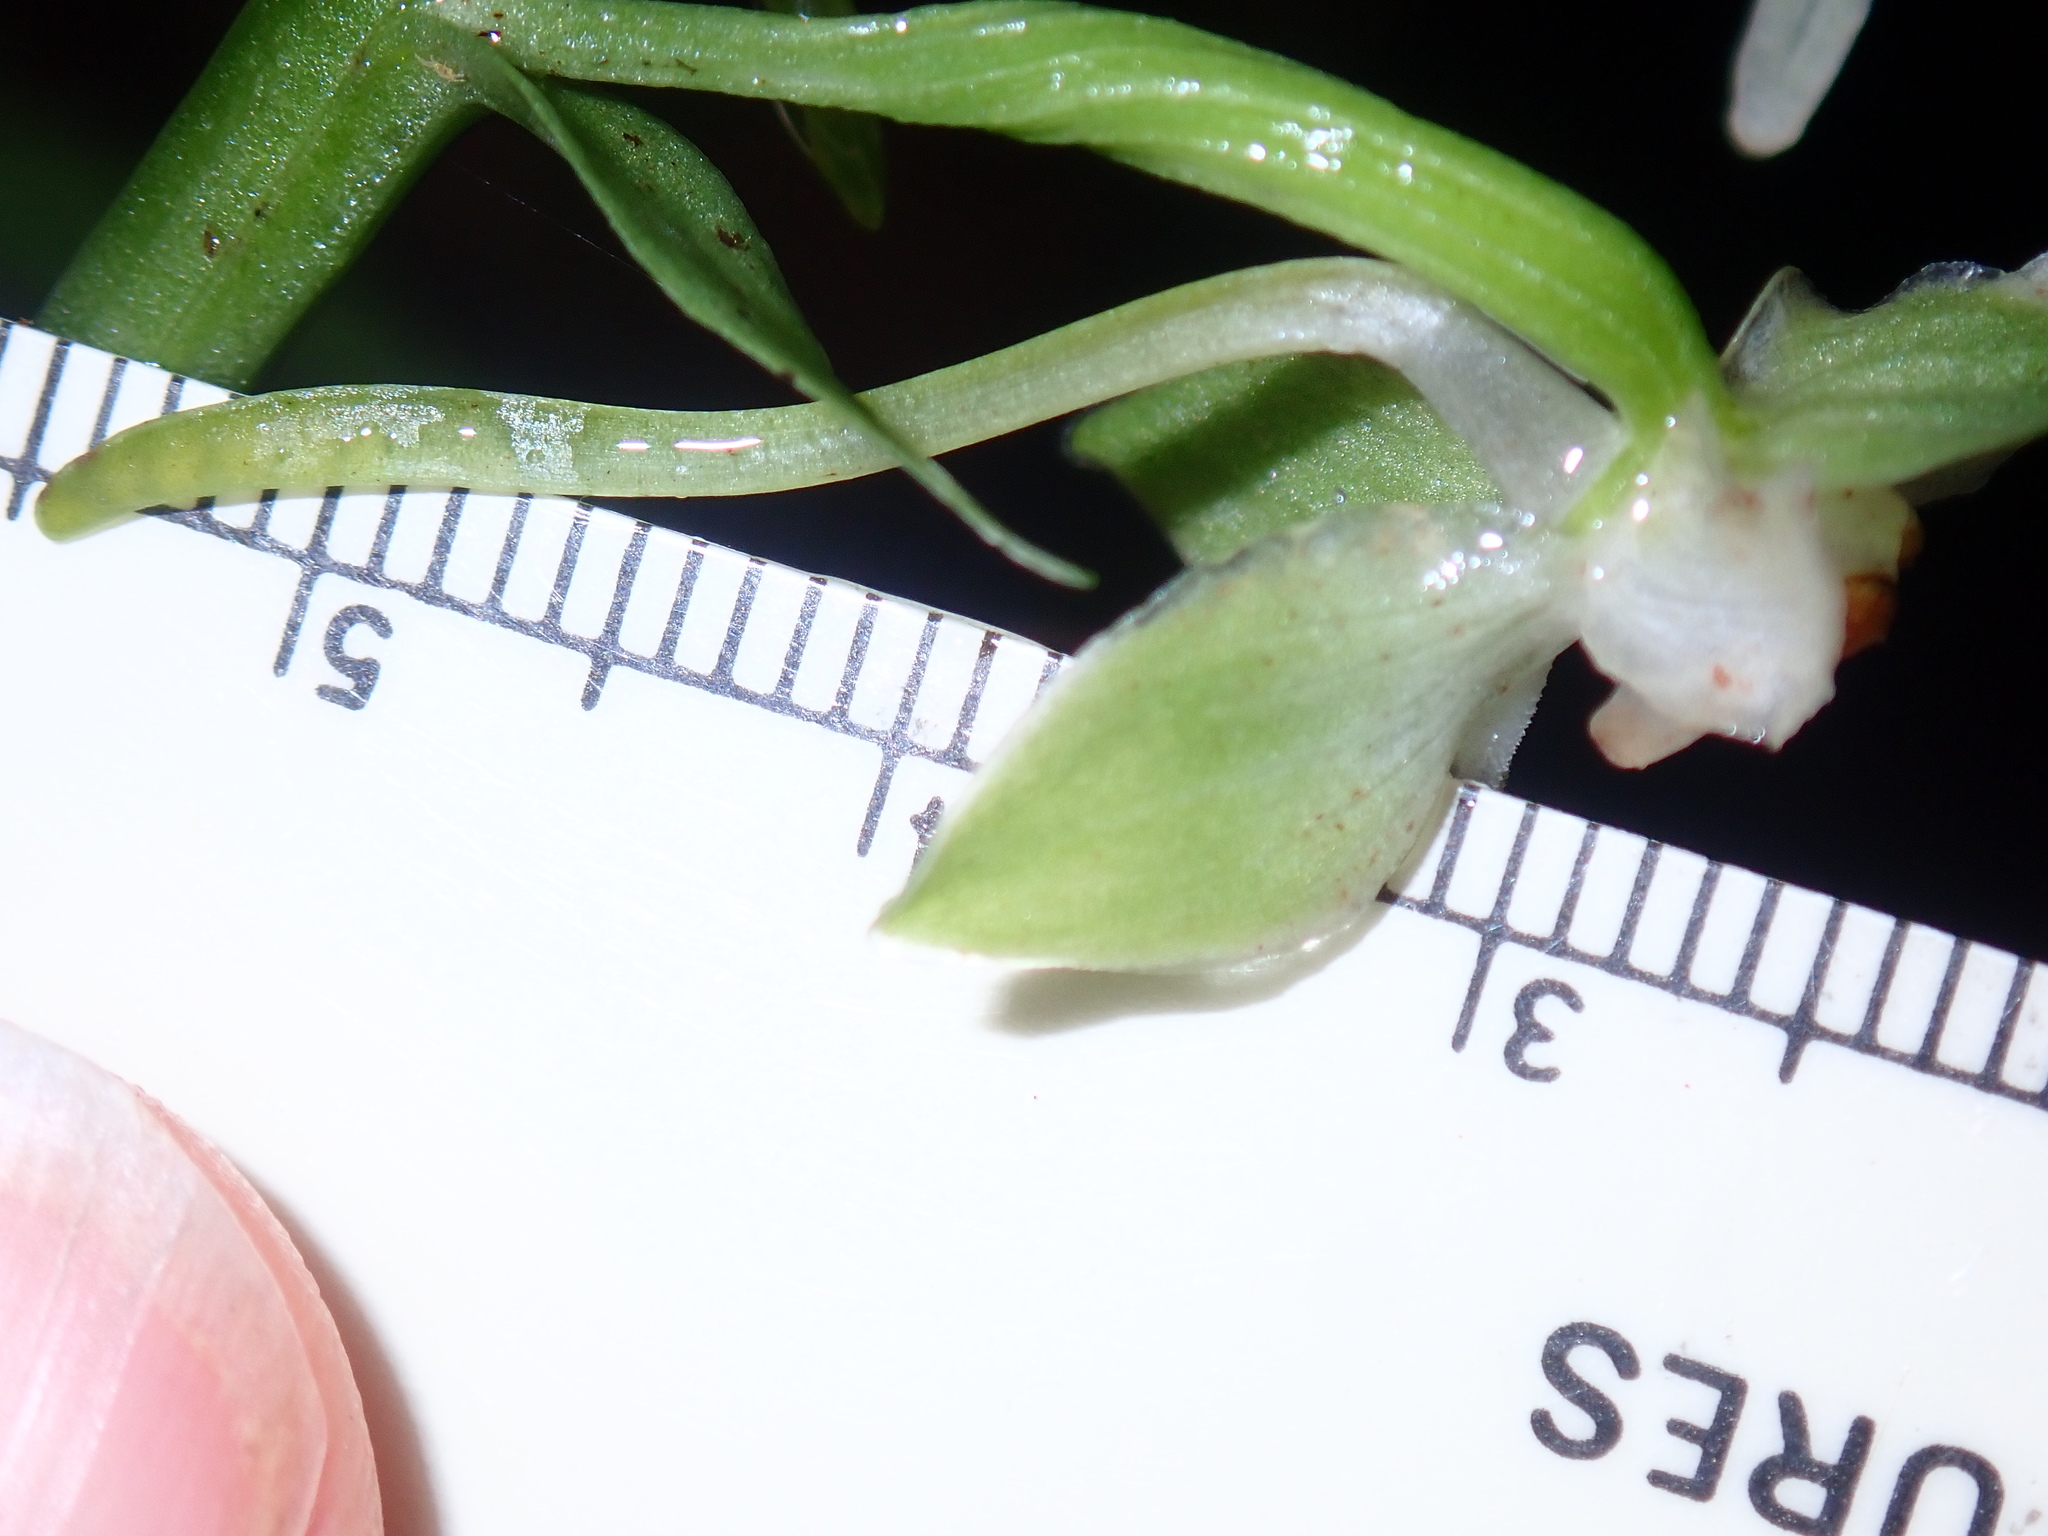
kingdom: Plantae
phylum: Tracheophyta
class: Liliopsida
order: Asparagales
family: Orchidaceae
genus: Platanthera
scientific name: Platanthera orbiculata
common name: Large round-leaved orchid
